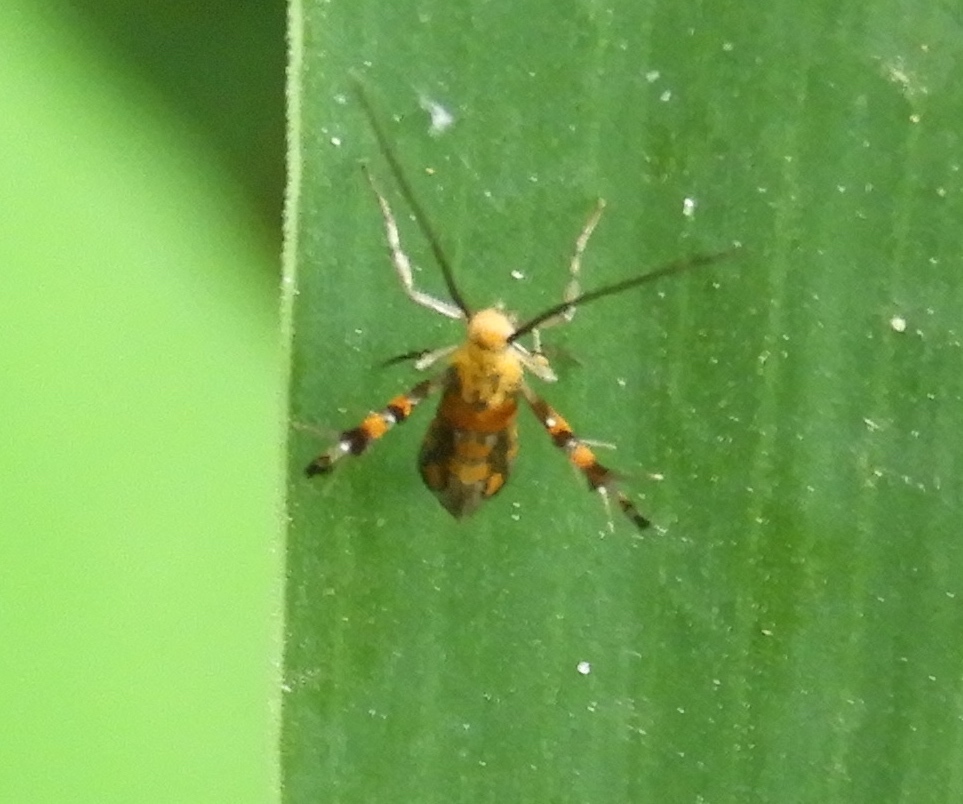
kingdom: Animalia
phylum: Arthropoda
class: Insecta
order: Lepidoptera
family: Heliodinidae
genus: Heliodines
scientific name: Heliodines
